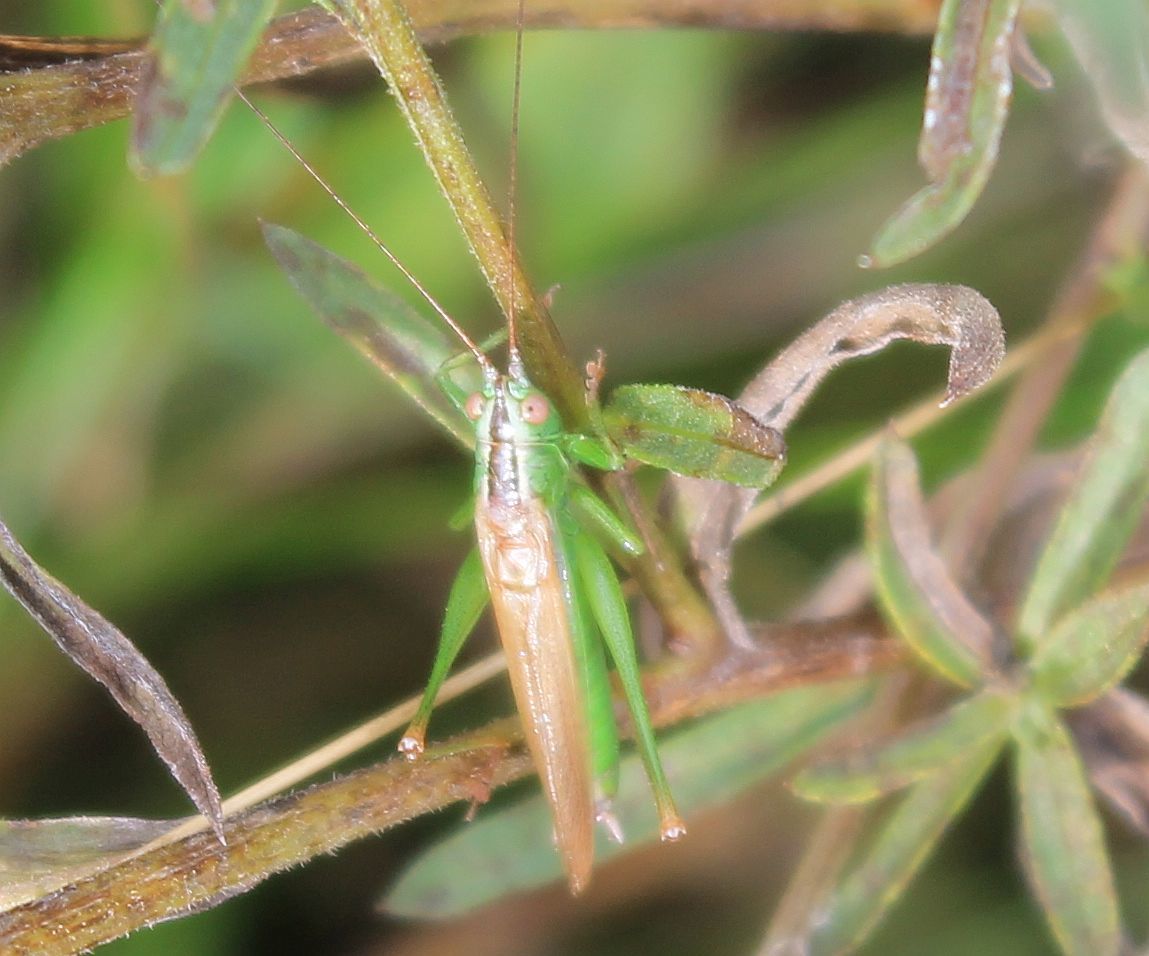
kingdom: Animalia
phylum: Arthropoda
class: Insecta
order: Orthoptera
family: Tettigoniidae
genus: Conocephalus
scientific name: Conocephalus fuscus
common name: Long-winged conehead
